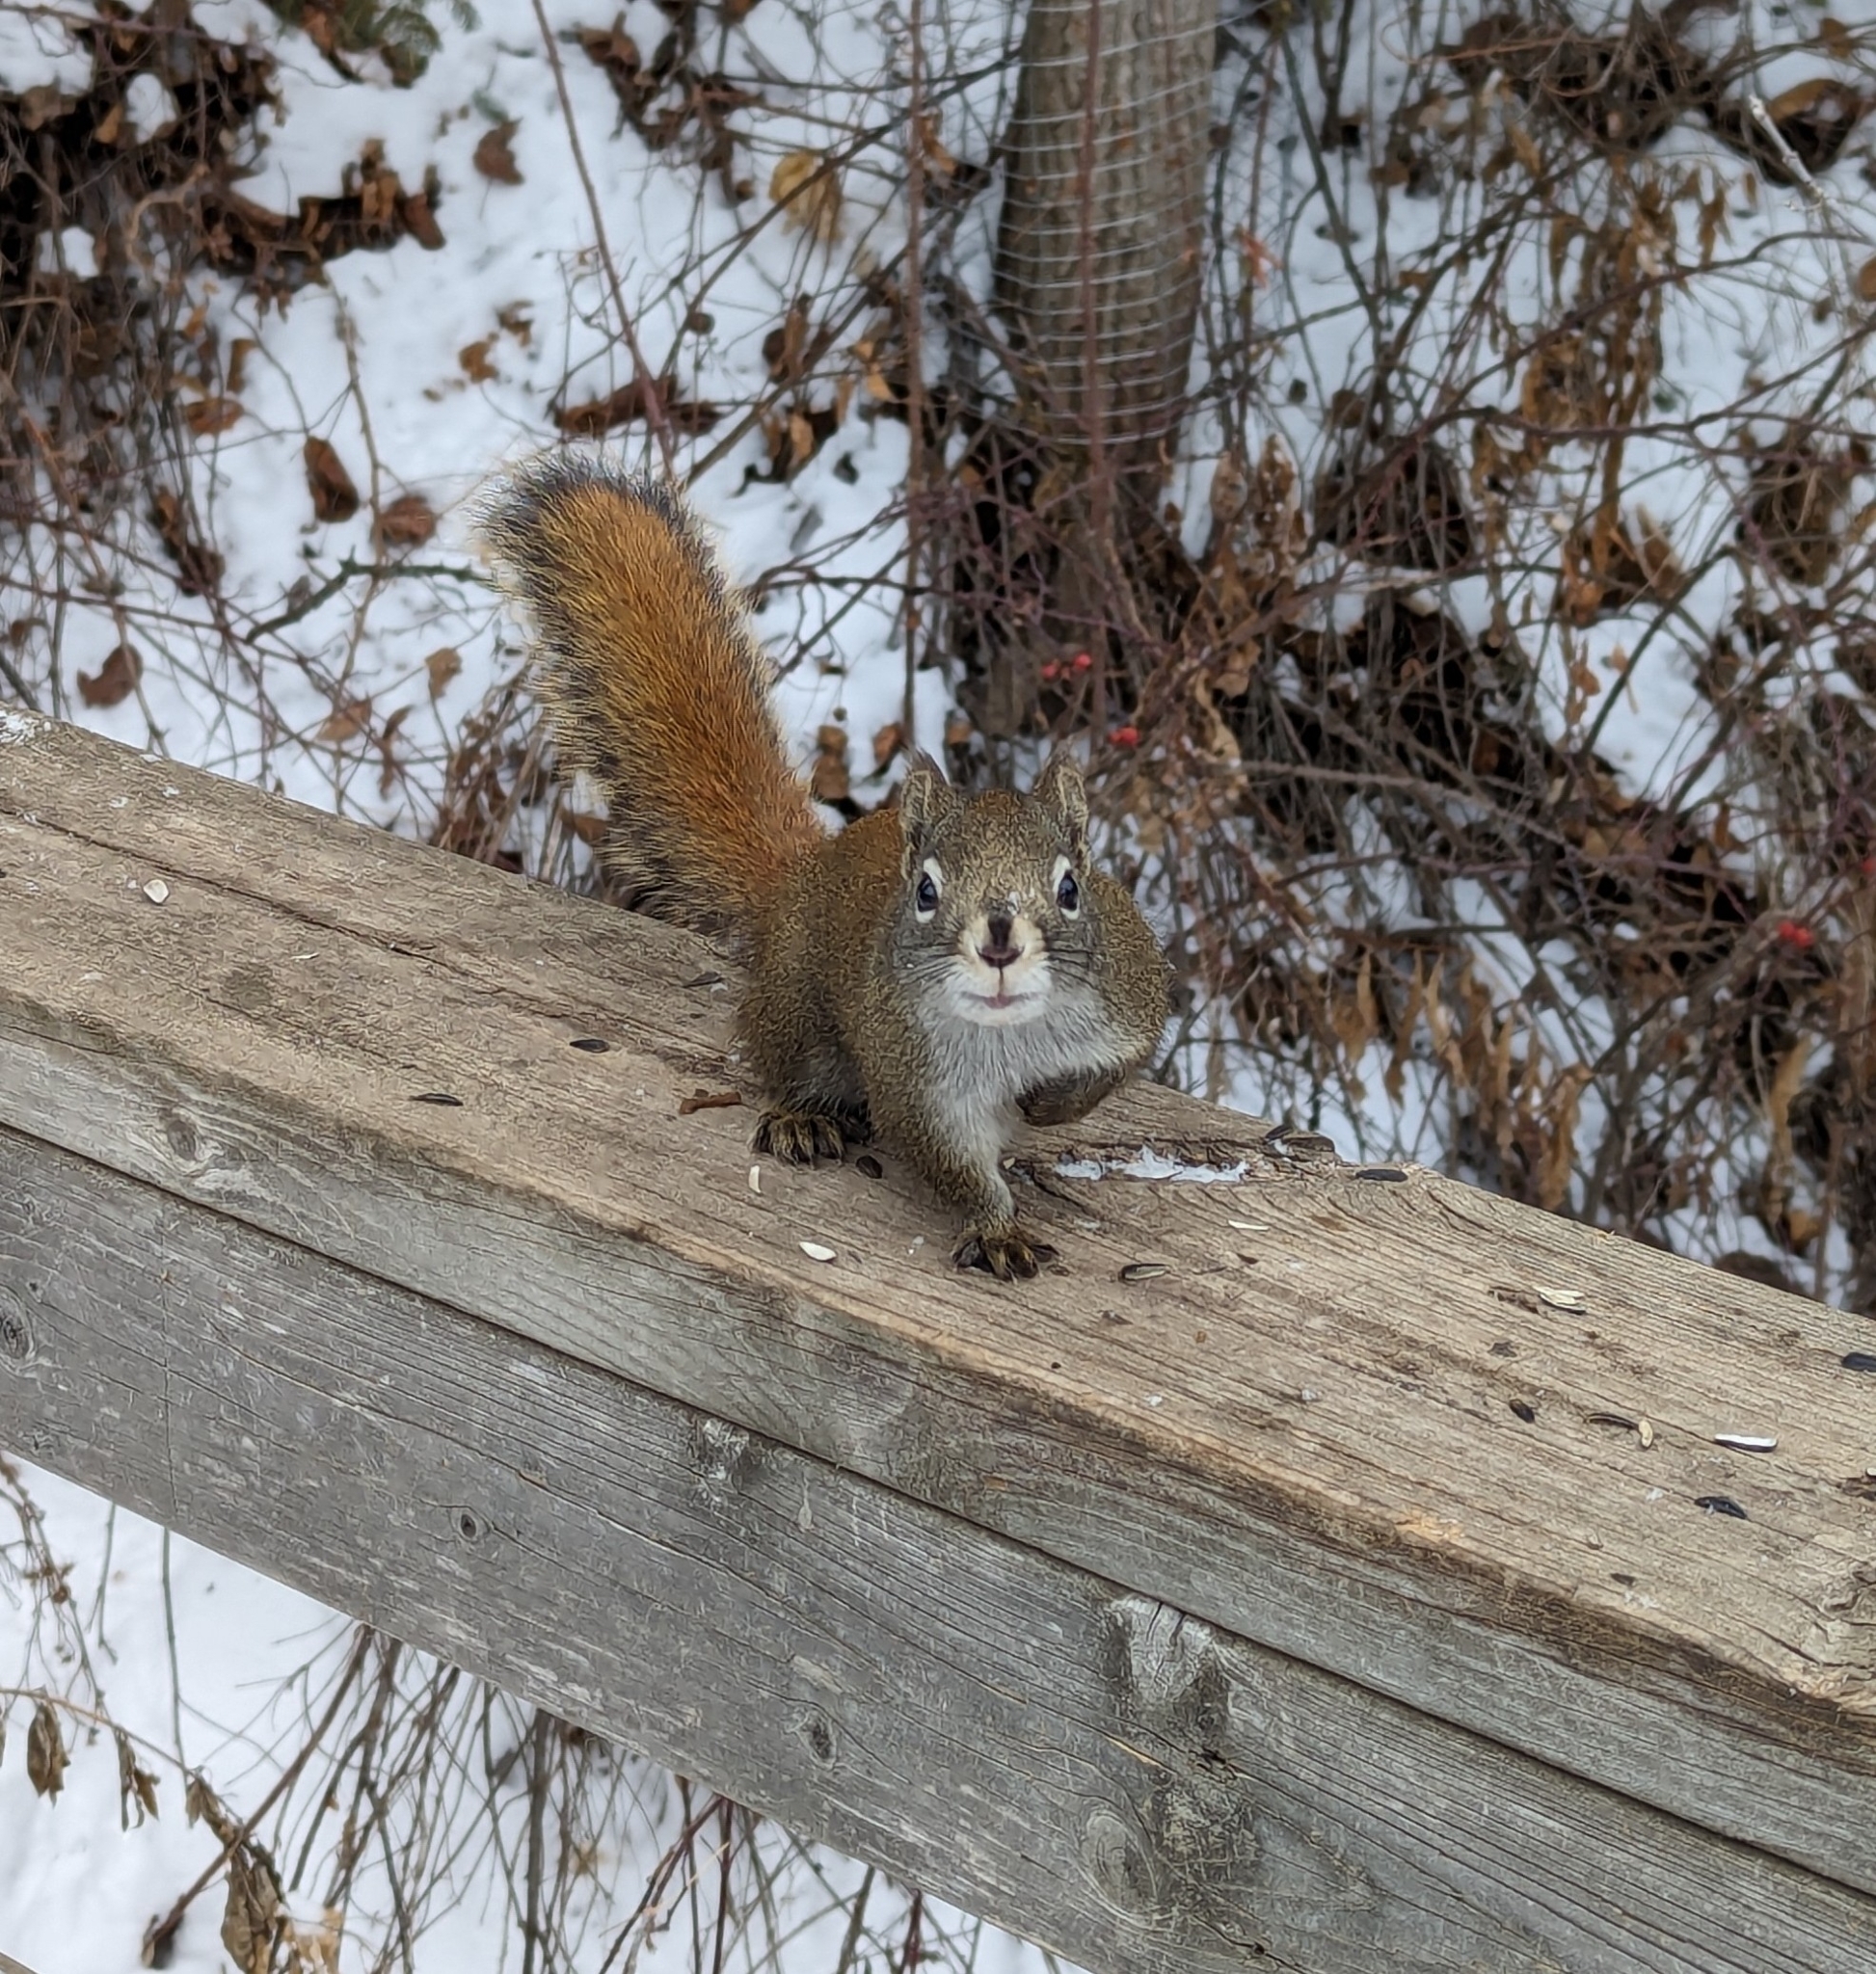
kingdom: Animalia
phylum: Chordata
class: Mammalia
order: Rodentia
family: Sciuridae
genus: Tamiasciurus
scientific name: Tamiasciurus hudsonicus
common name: Red squirrel
